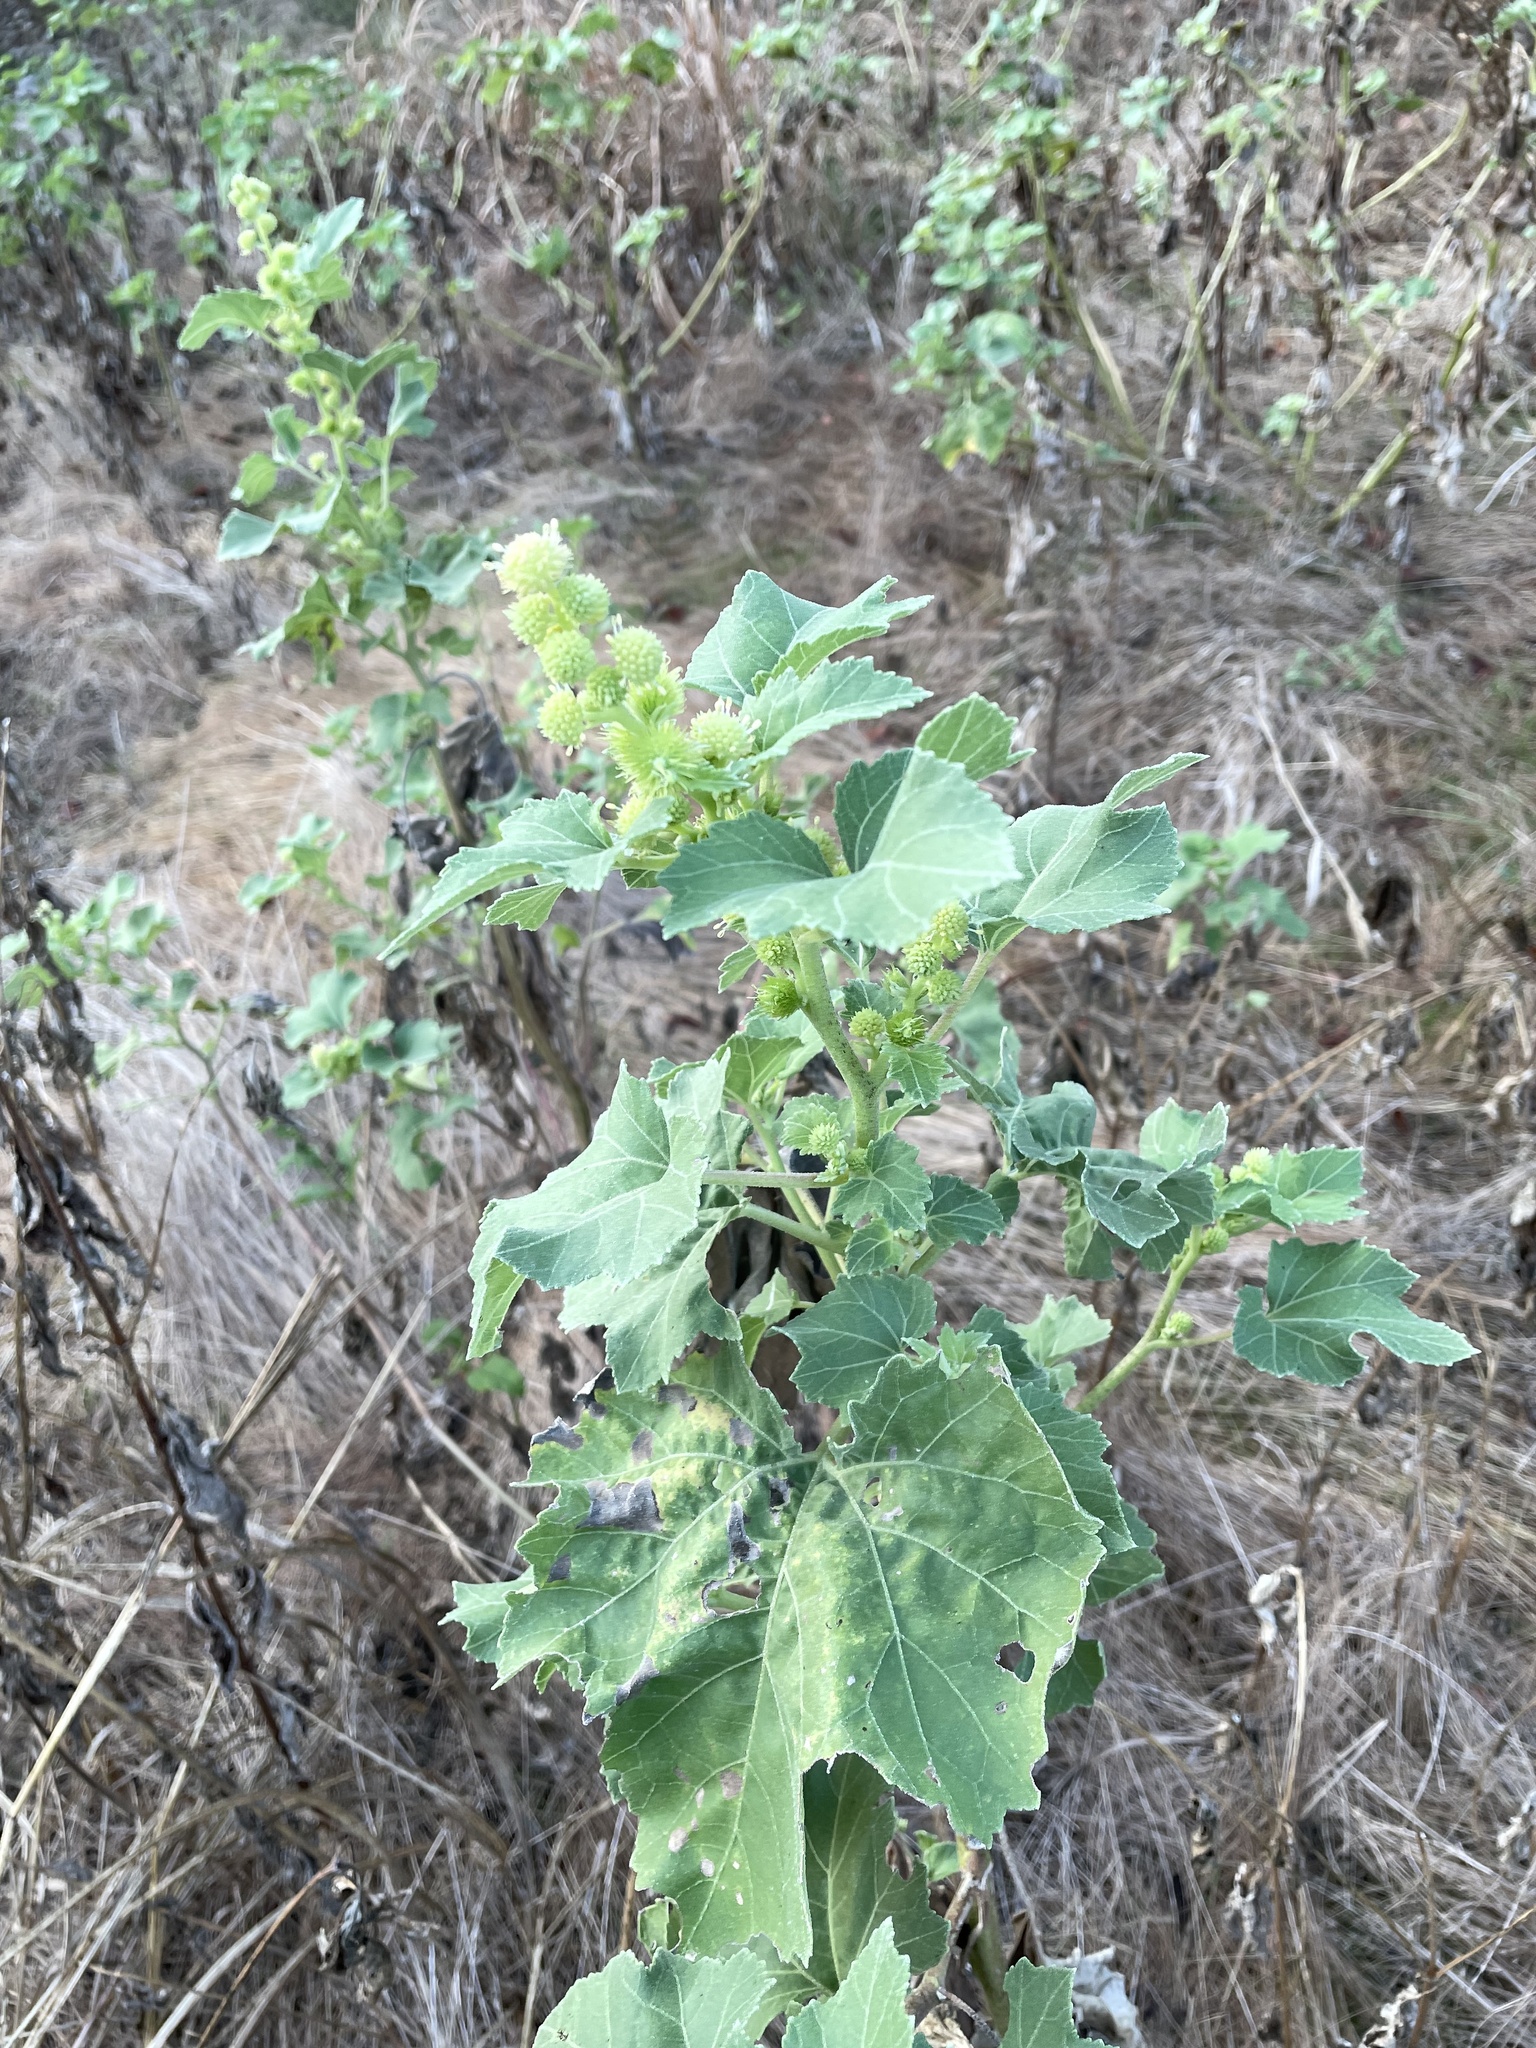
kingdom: Plantae
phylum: Tracheophyta
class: Magnoliopsida
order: Asterales
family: Asteraceae
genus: Xanthium
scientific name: Xanthium strumarium
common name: Rough cocklebur
